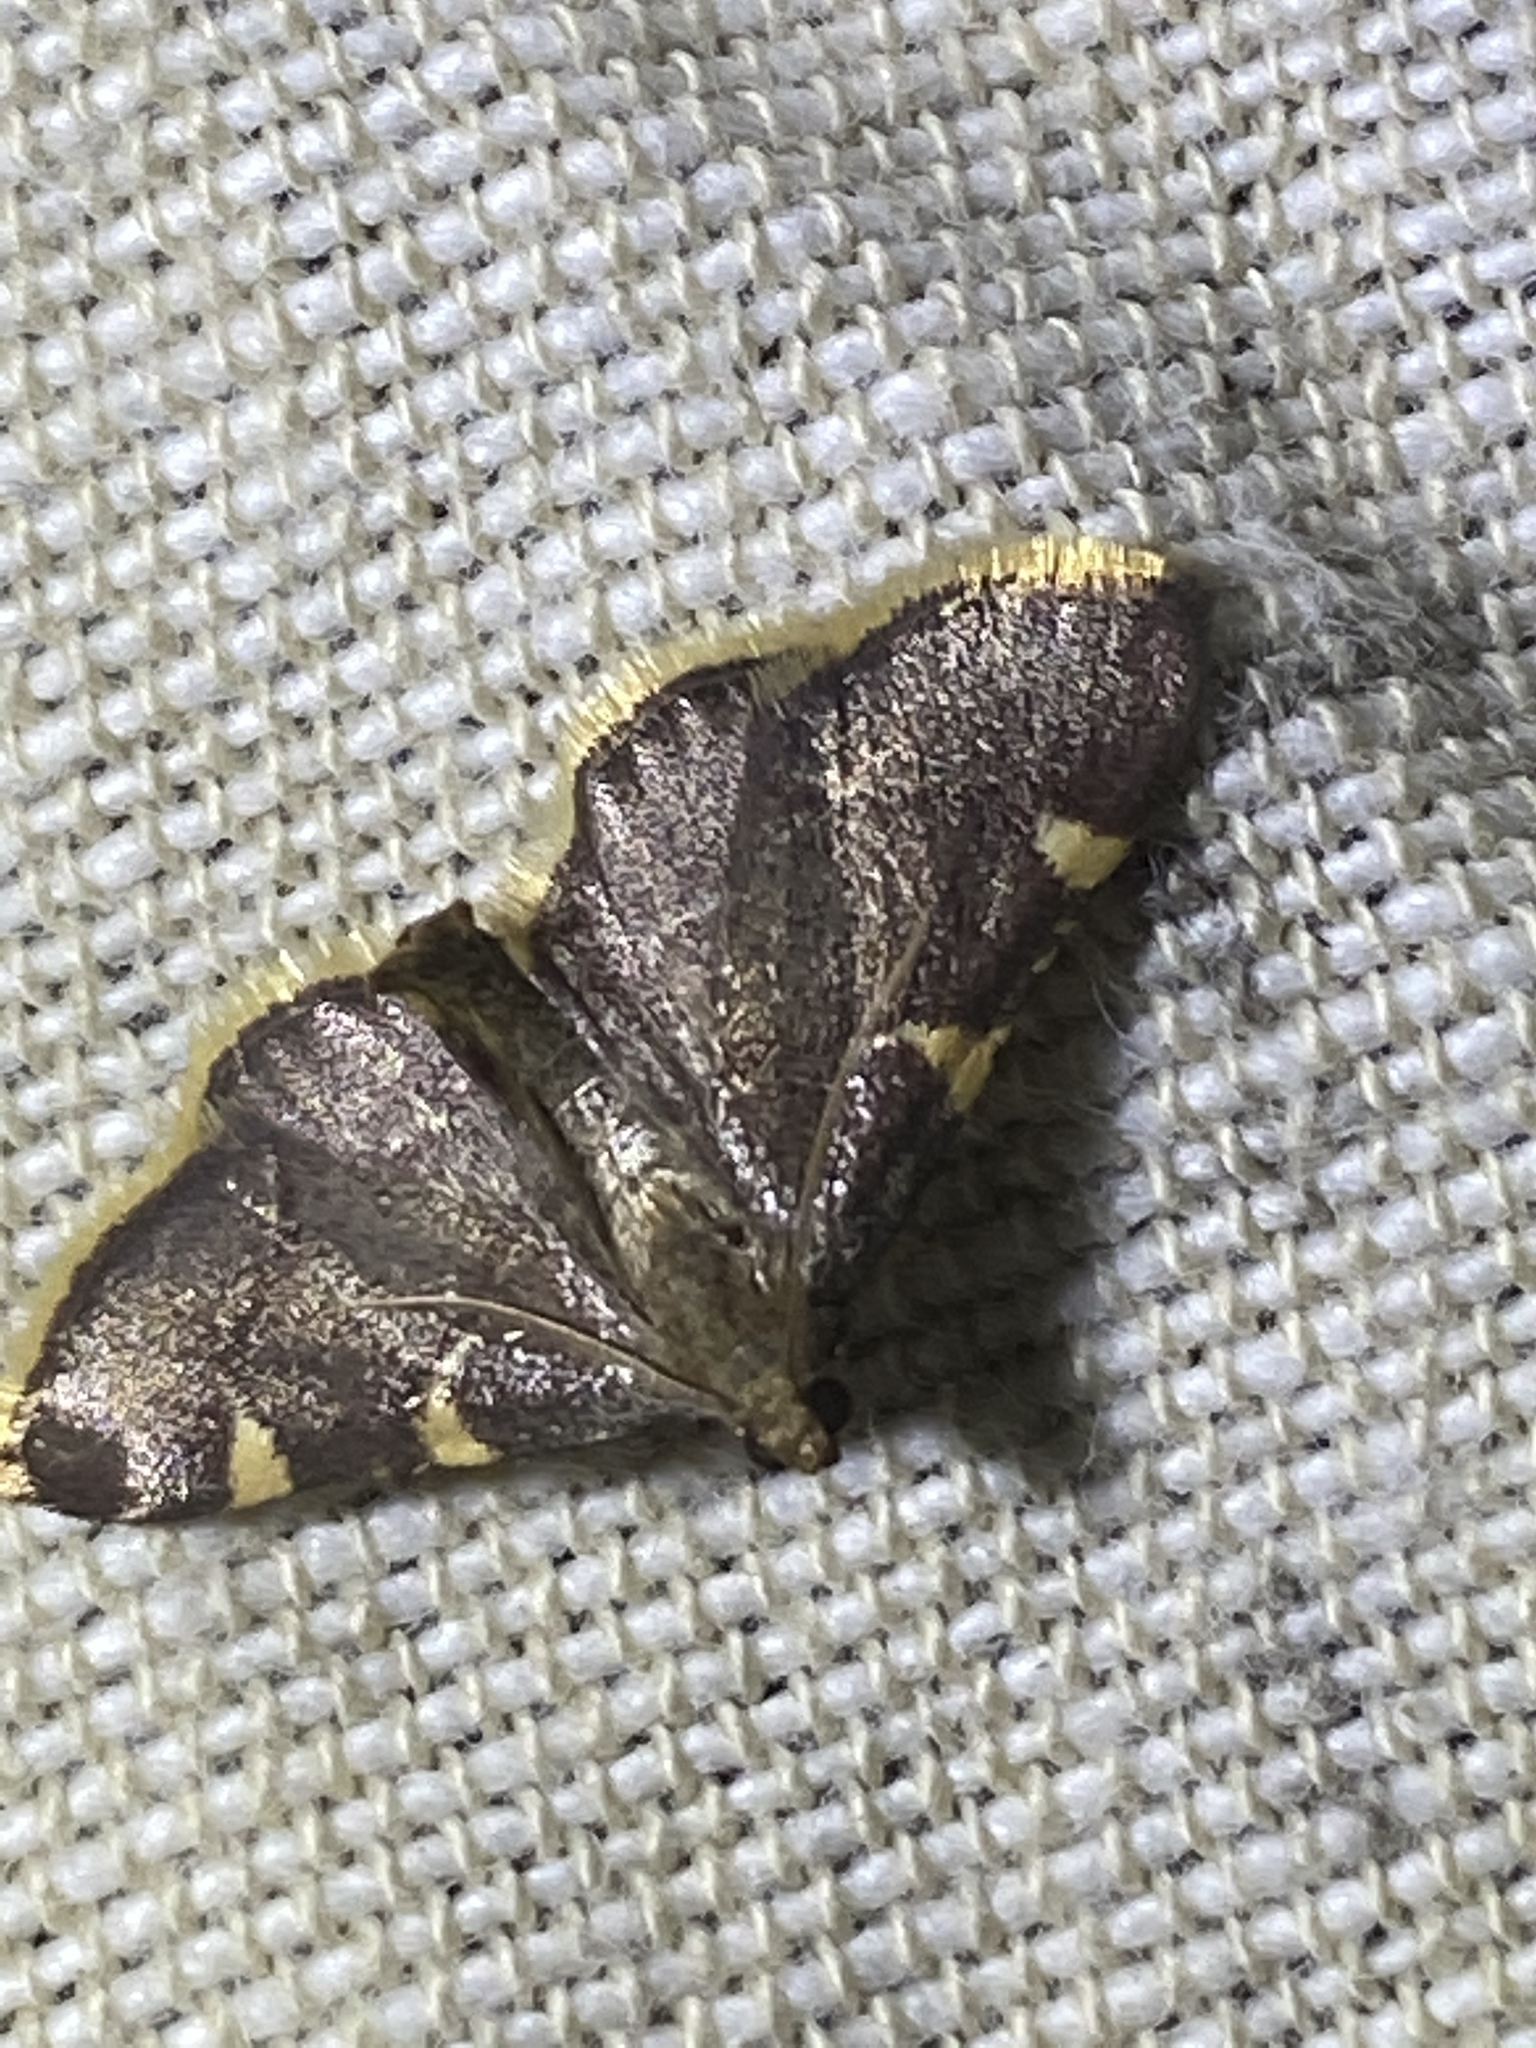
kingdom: Animalia
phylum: Arthropoda
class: Insecta
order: Lepidoptera
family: Pyralidae
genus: Hypsopygia
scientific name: Hypsopygia olinalis
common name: Yellow-fringed dolichomia moth
